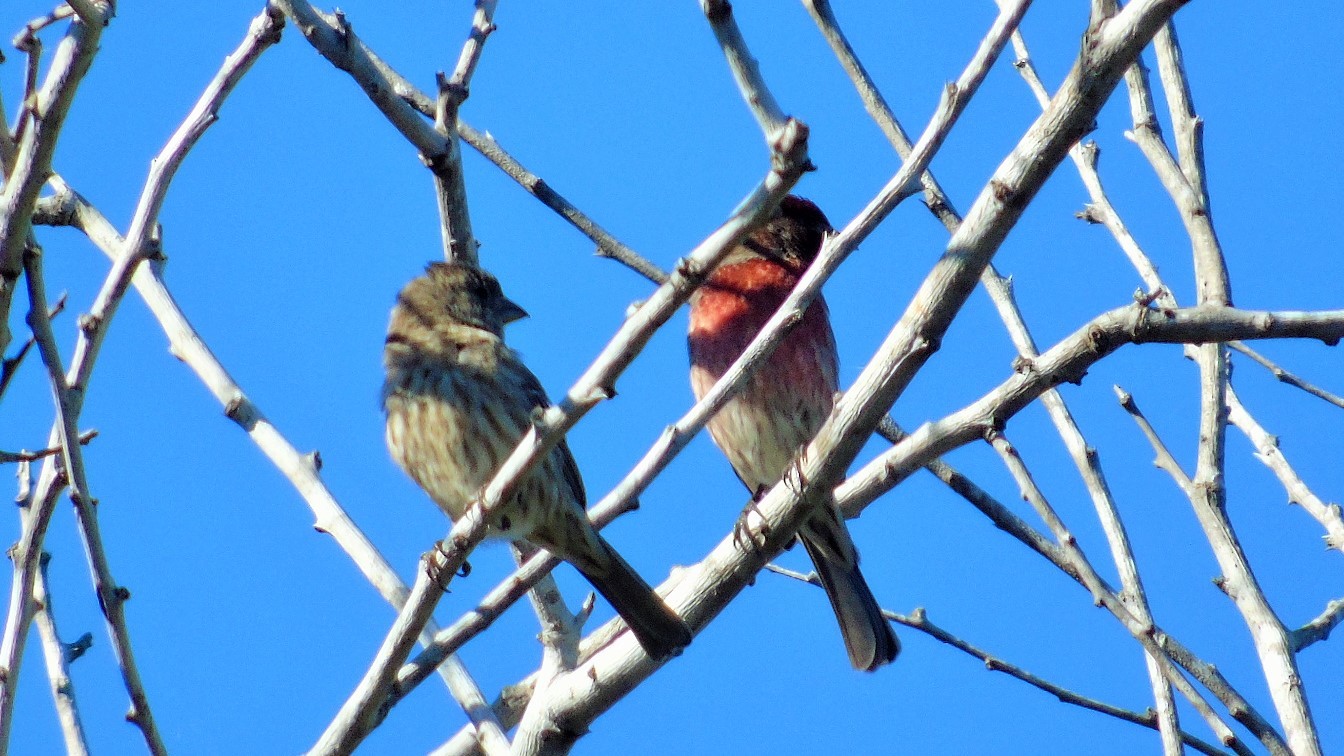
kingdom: Animalia
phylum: Chordata
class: Aves
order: Passeriformes
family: Fringillidae
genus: Haemorhous
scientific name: Haemorhous mexicanus
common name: House finch
